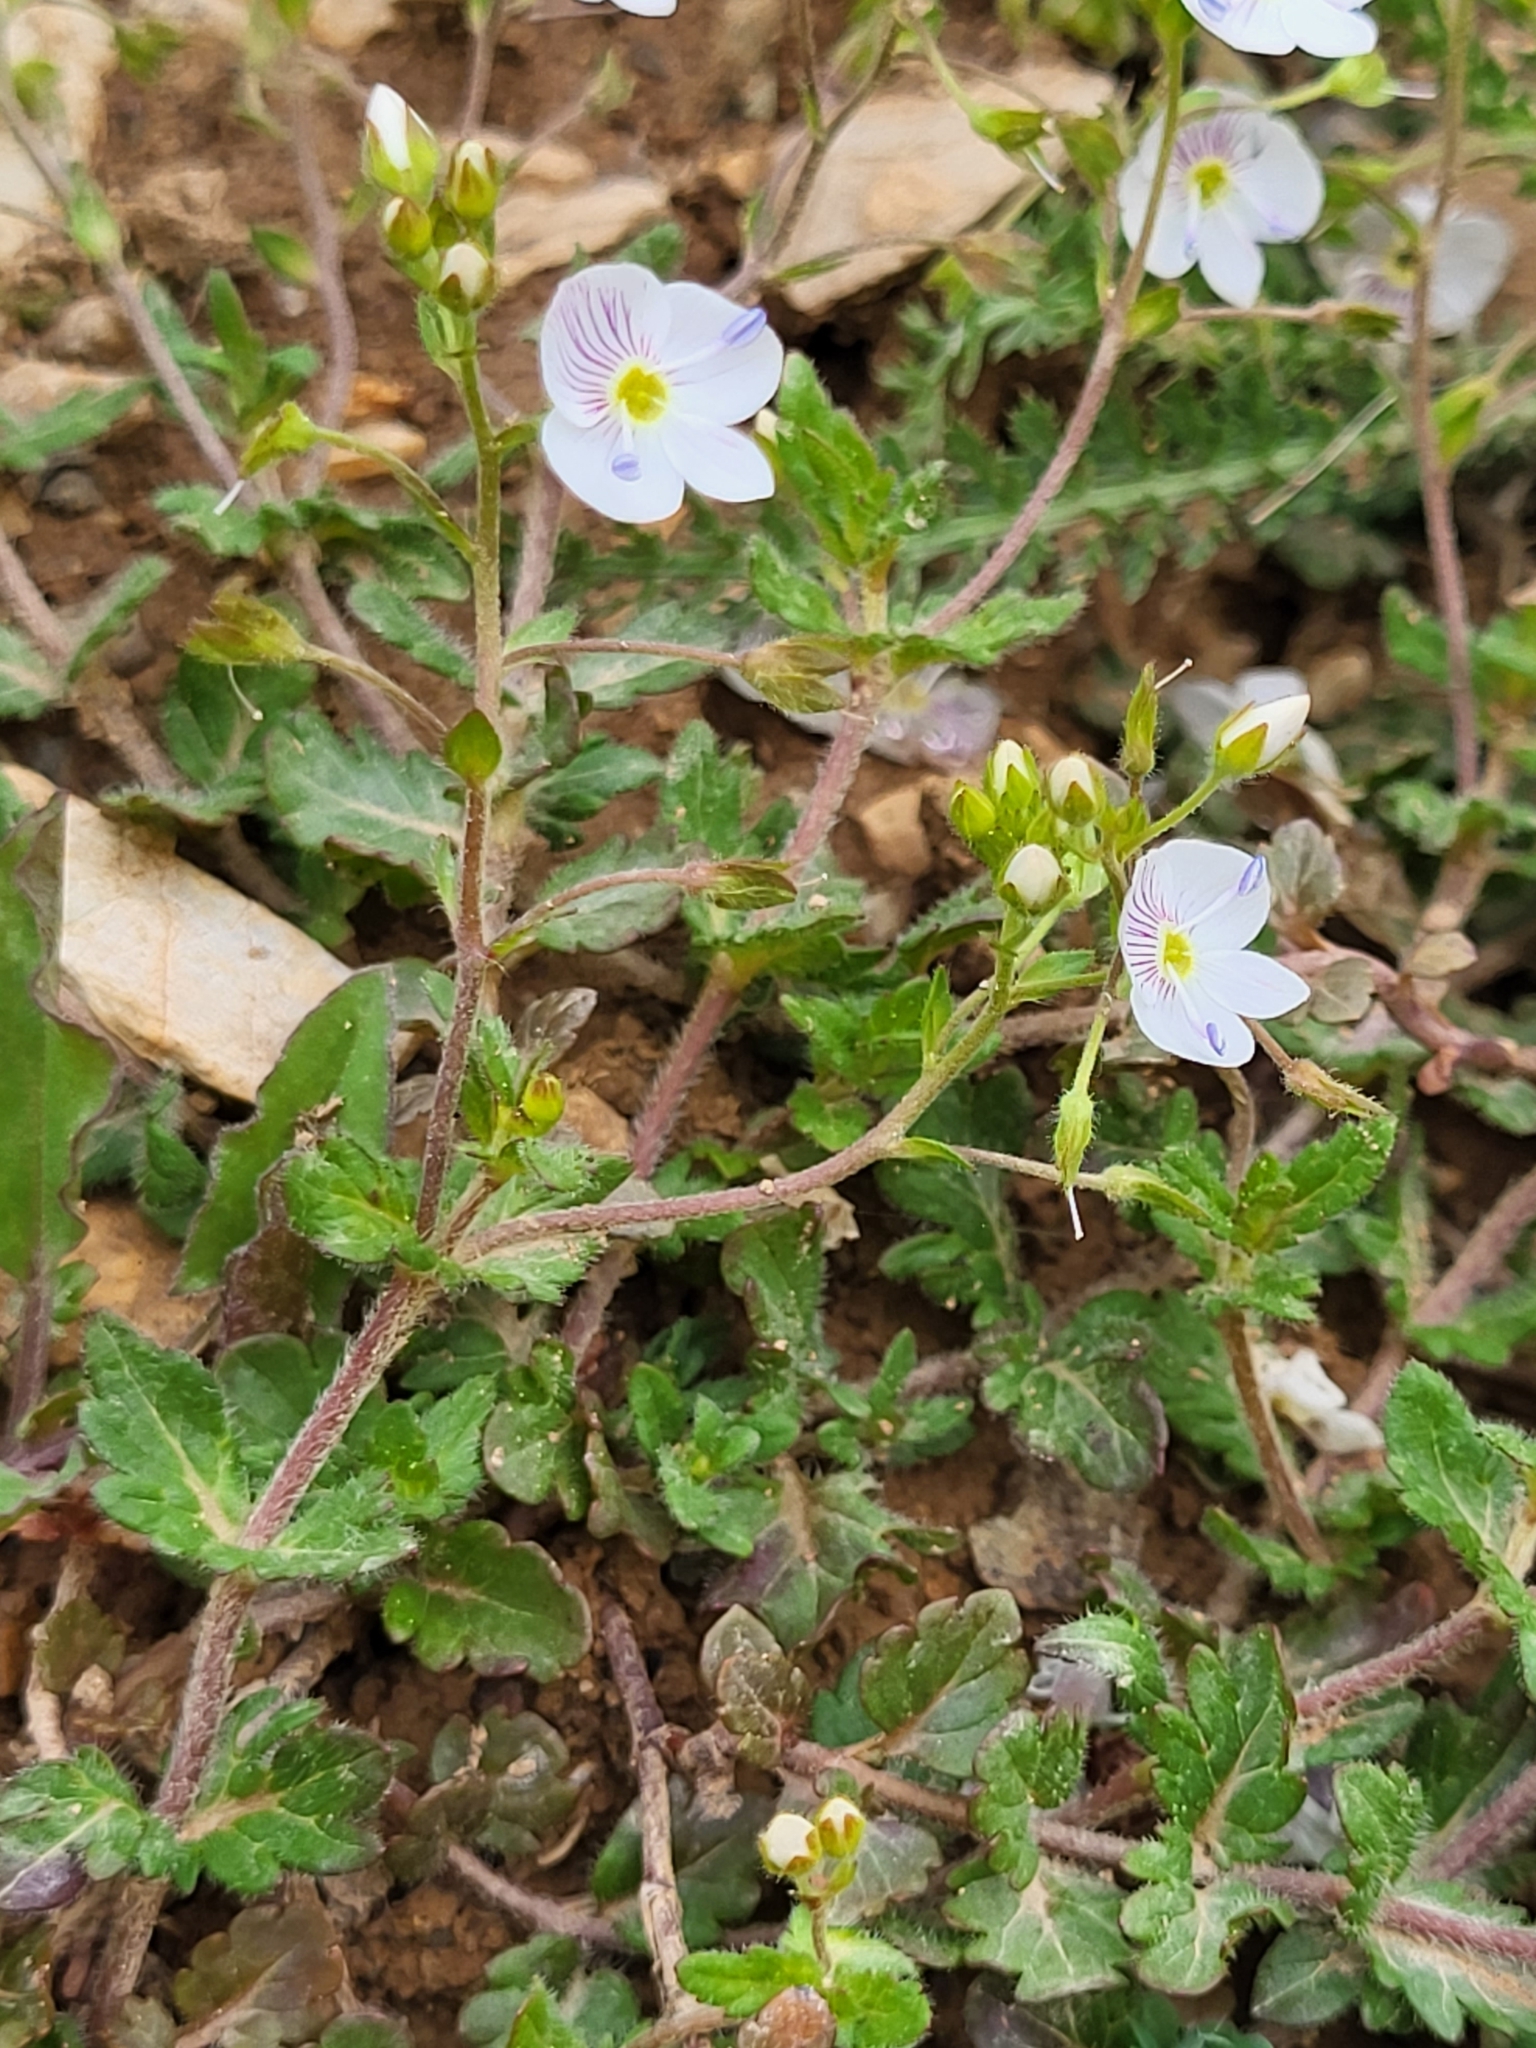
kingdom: Plantae
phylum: Tracheophyta
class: Magnoliopsida
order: Lamiales
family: Plantaginaceae
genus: Veronica
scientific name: Veronica peduncularis
